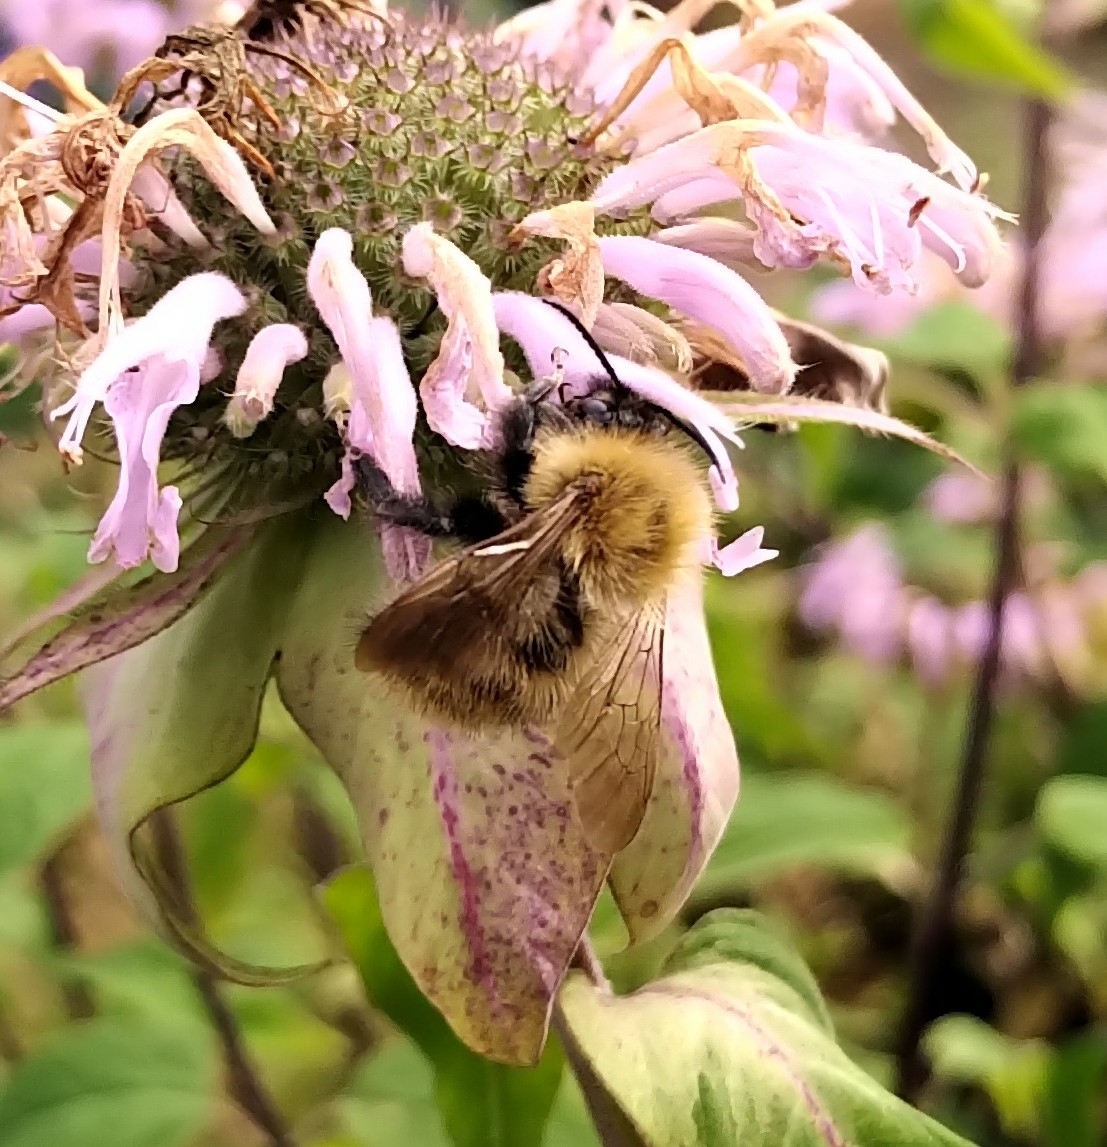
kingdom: Animalia
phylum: Arthropoda
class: Insecta
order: Hymenoptera
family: Apidae
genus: Bombus
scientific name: Bombus pascuorum
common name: Common carder bee
